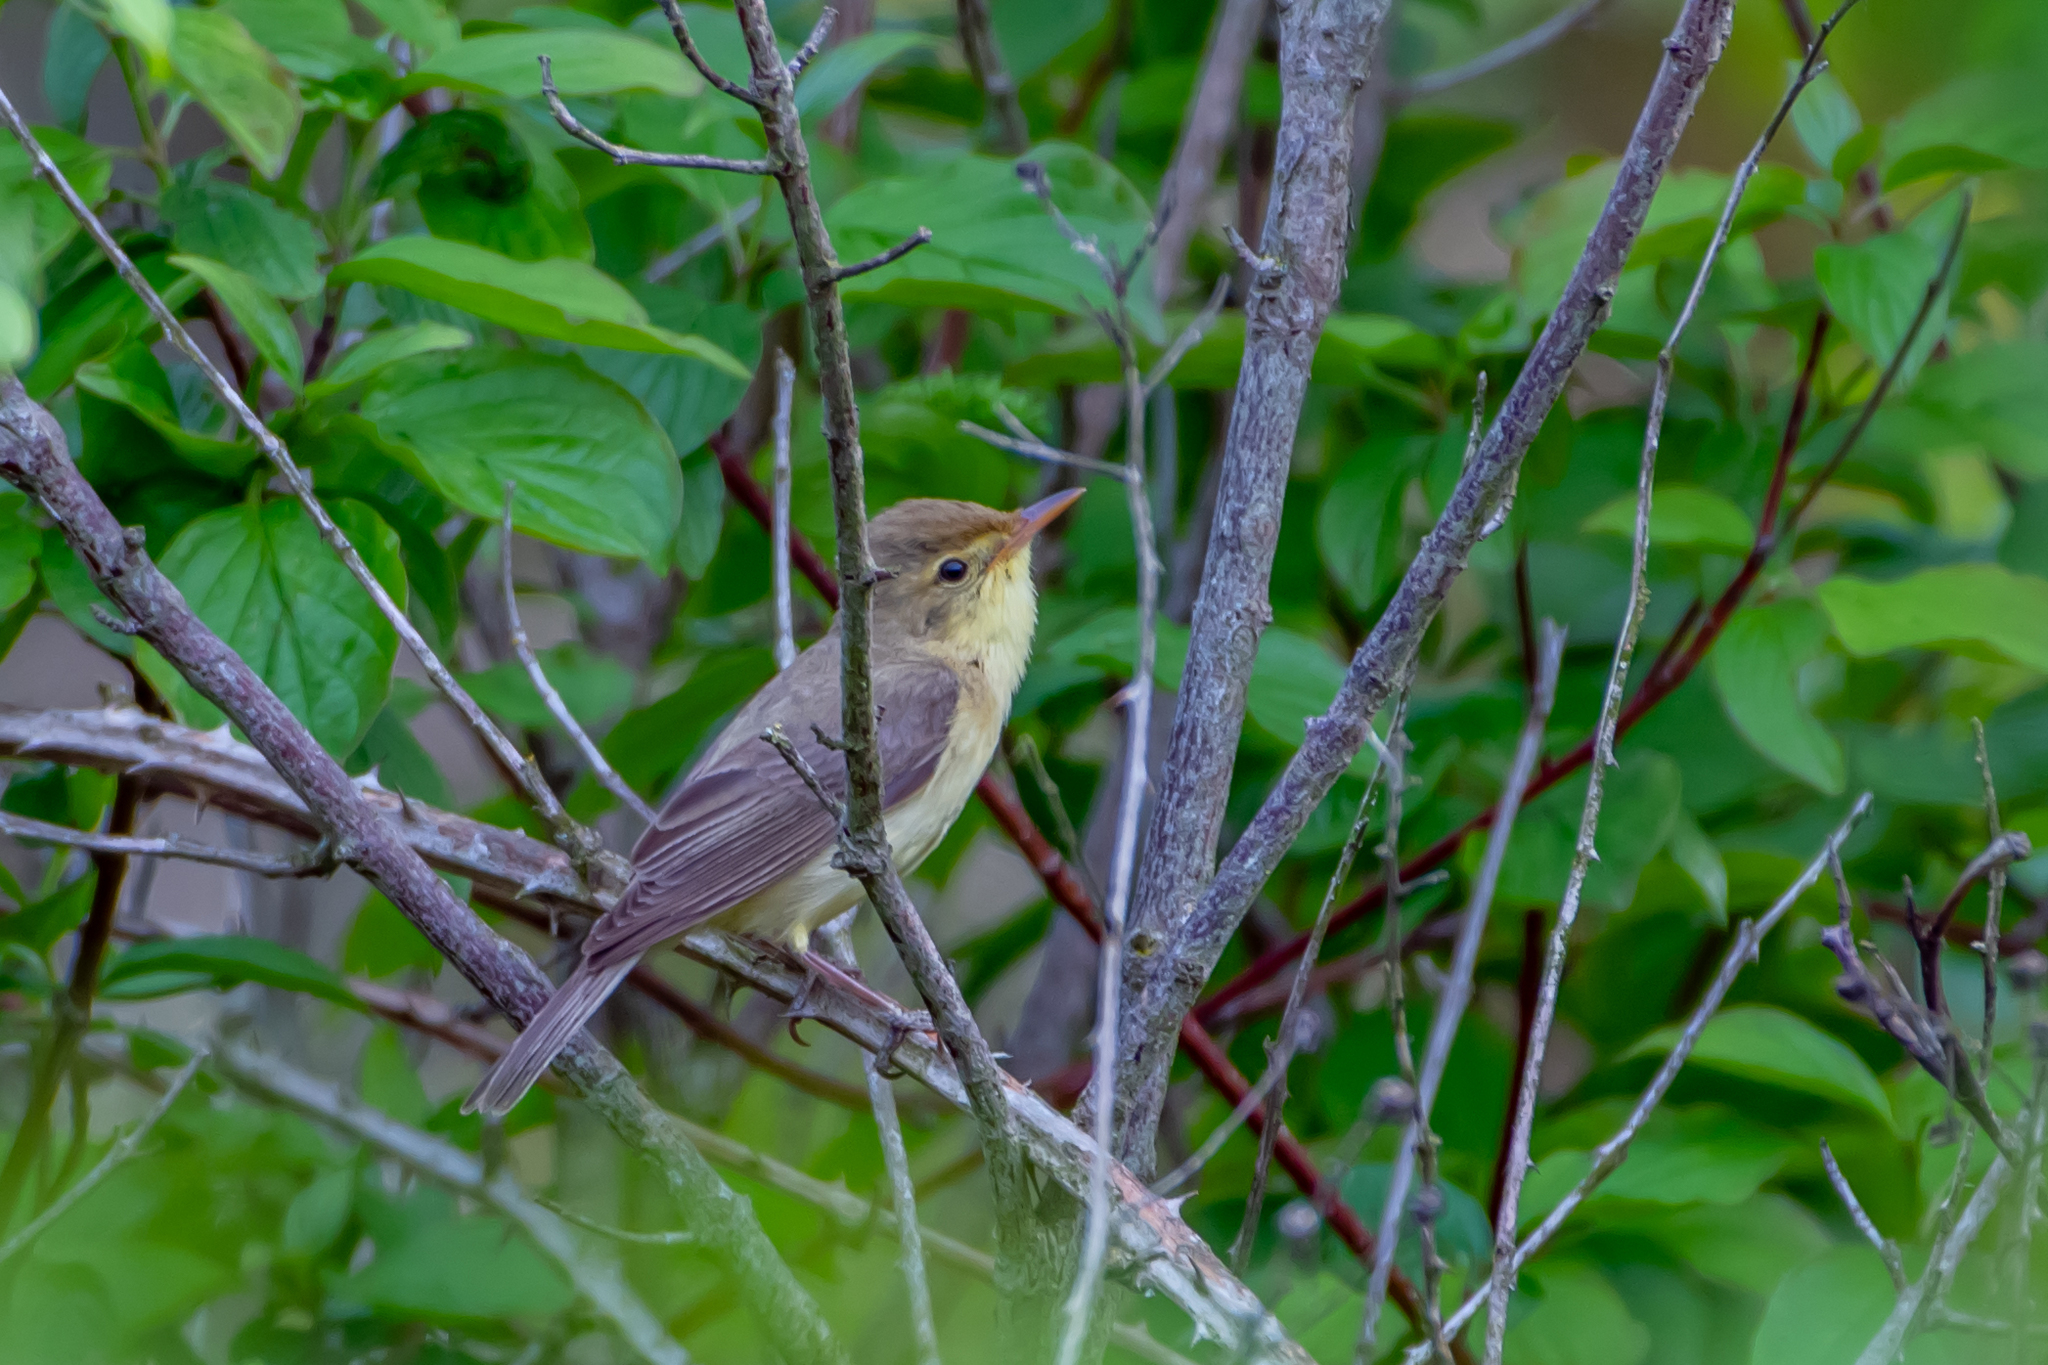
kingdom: Animalia
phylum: Chordata
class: Aves
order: Passeriformes
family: Acrocephalidae
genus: Hippolais
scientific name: Hippolais polyglotta
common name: Melodious warbler
